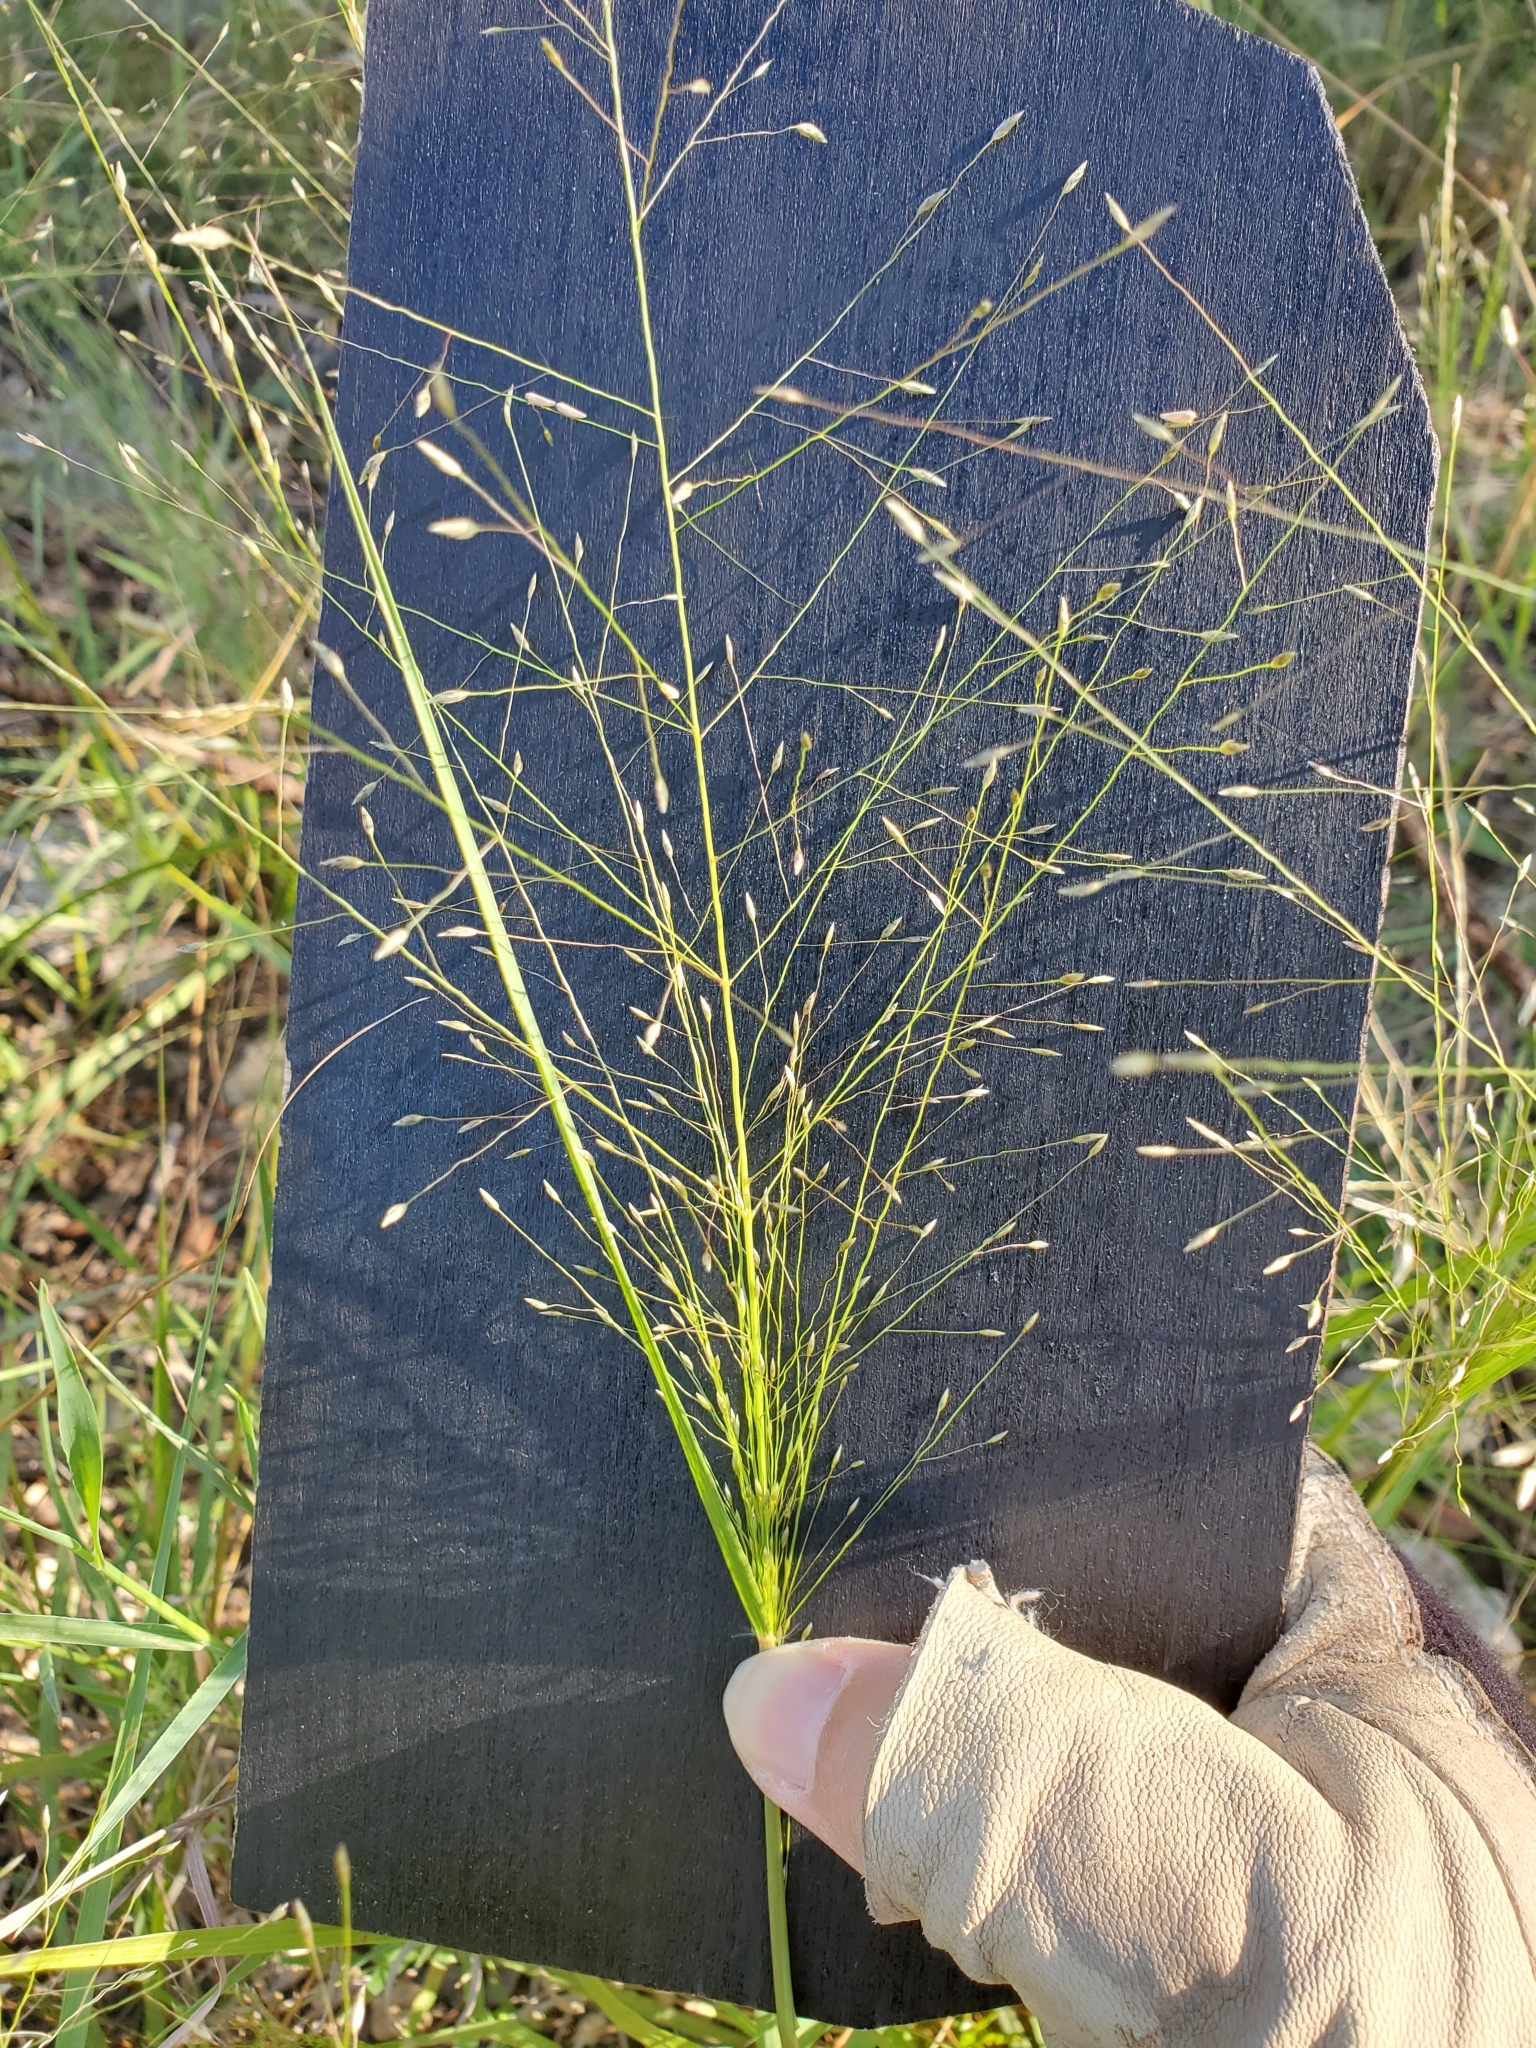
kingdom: Plantae
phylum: Tracheophyta
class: Liliopsida
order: Poales
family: Poaceae
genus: Eragrostis
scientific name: Eragrostis intermedia
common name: Plains love grass
